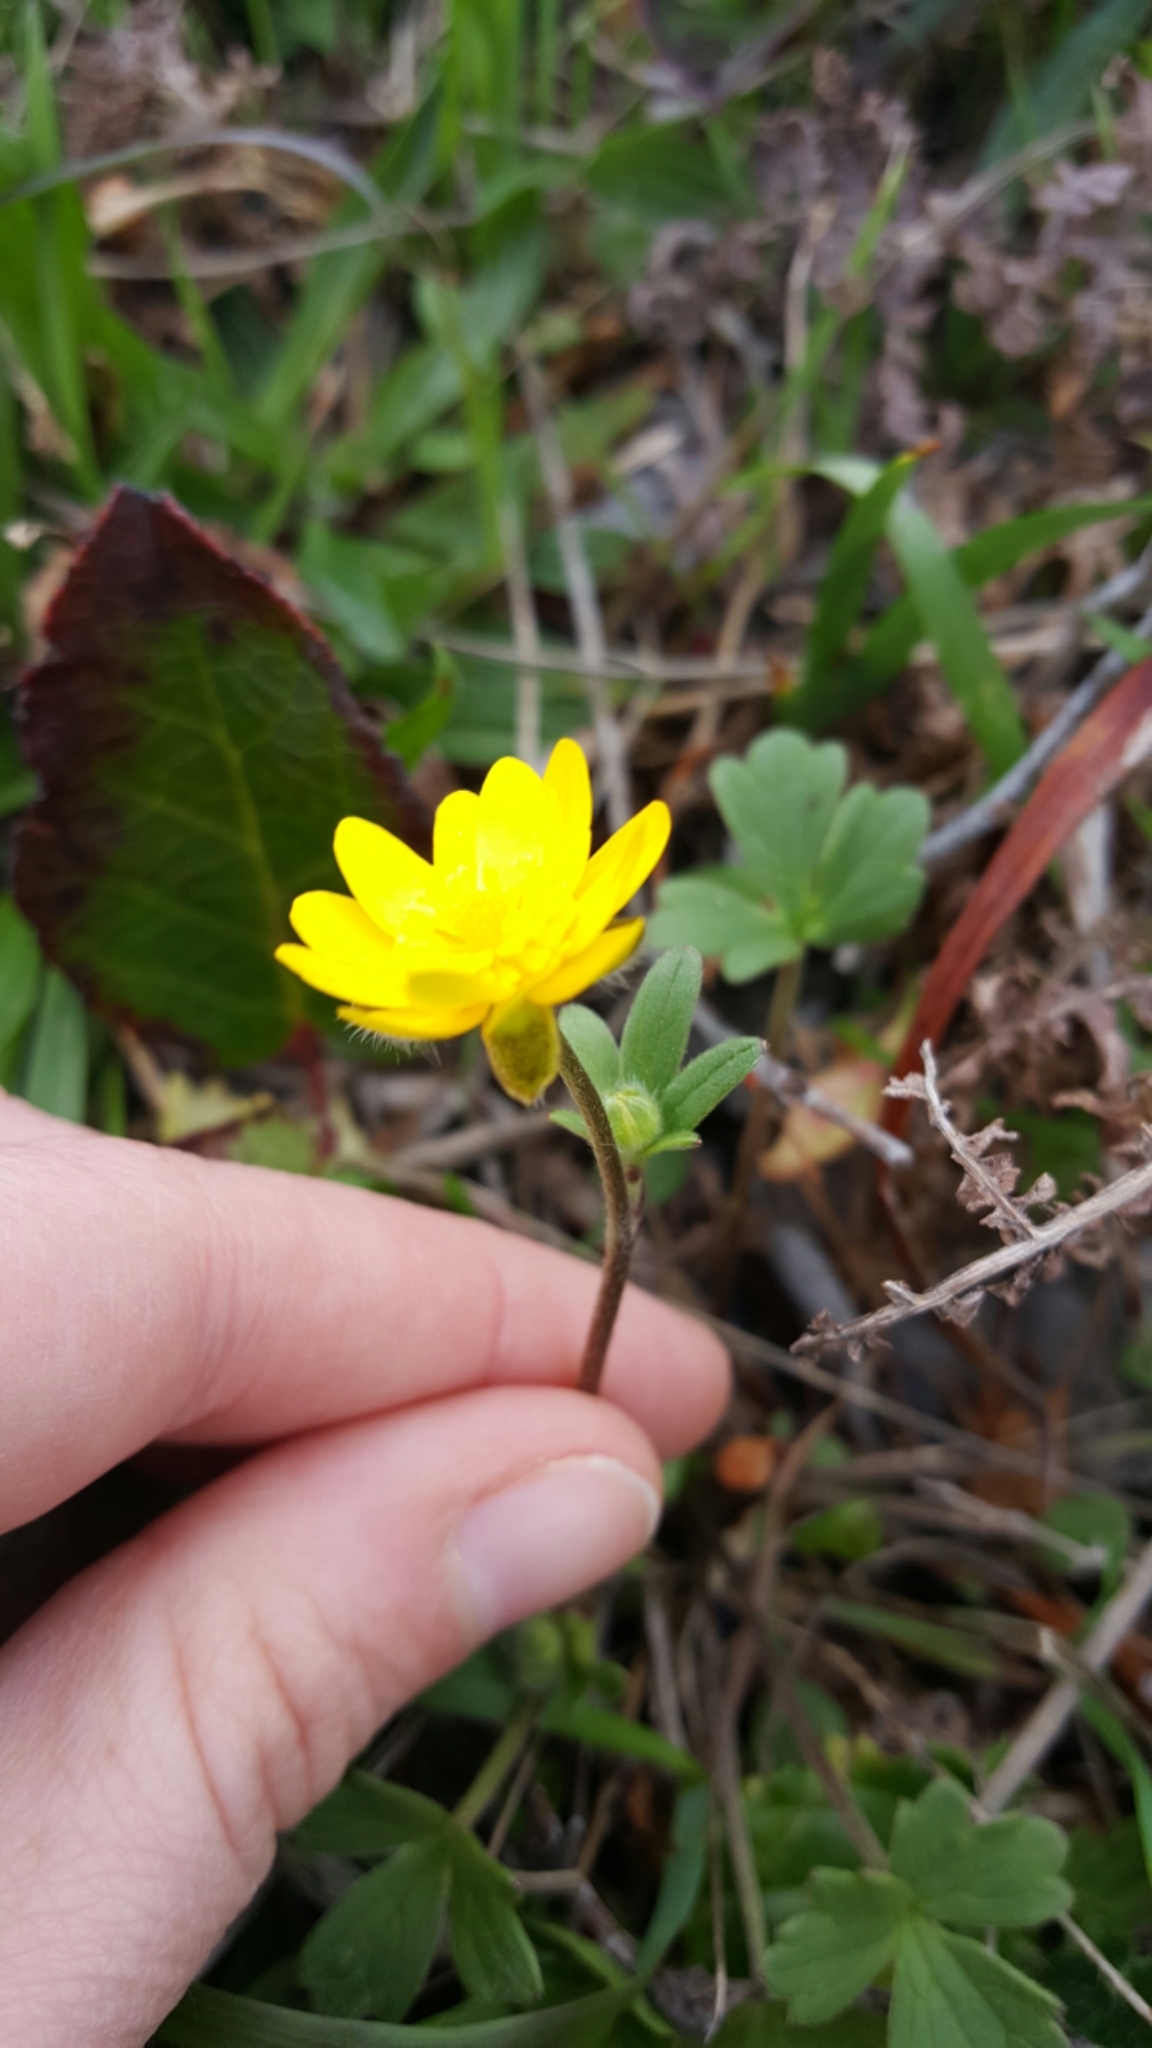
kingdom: Plantae
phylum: Tracheophyta
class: Magnoliopsida
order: Ranunculales
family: Ranunculaceae
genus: Ranunculus
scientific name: Ranunculus californicus
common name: California buttercup
